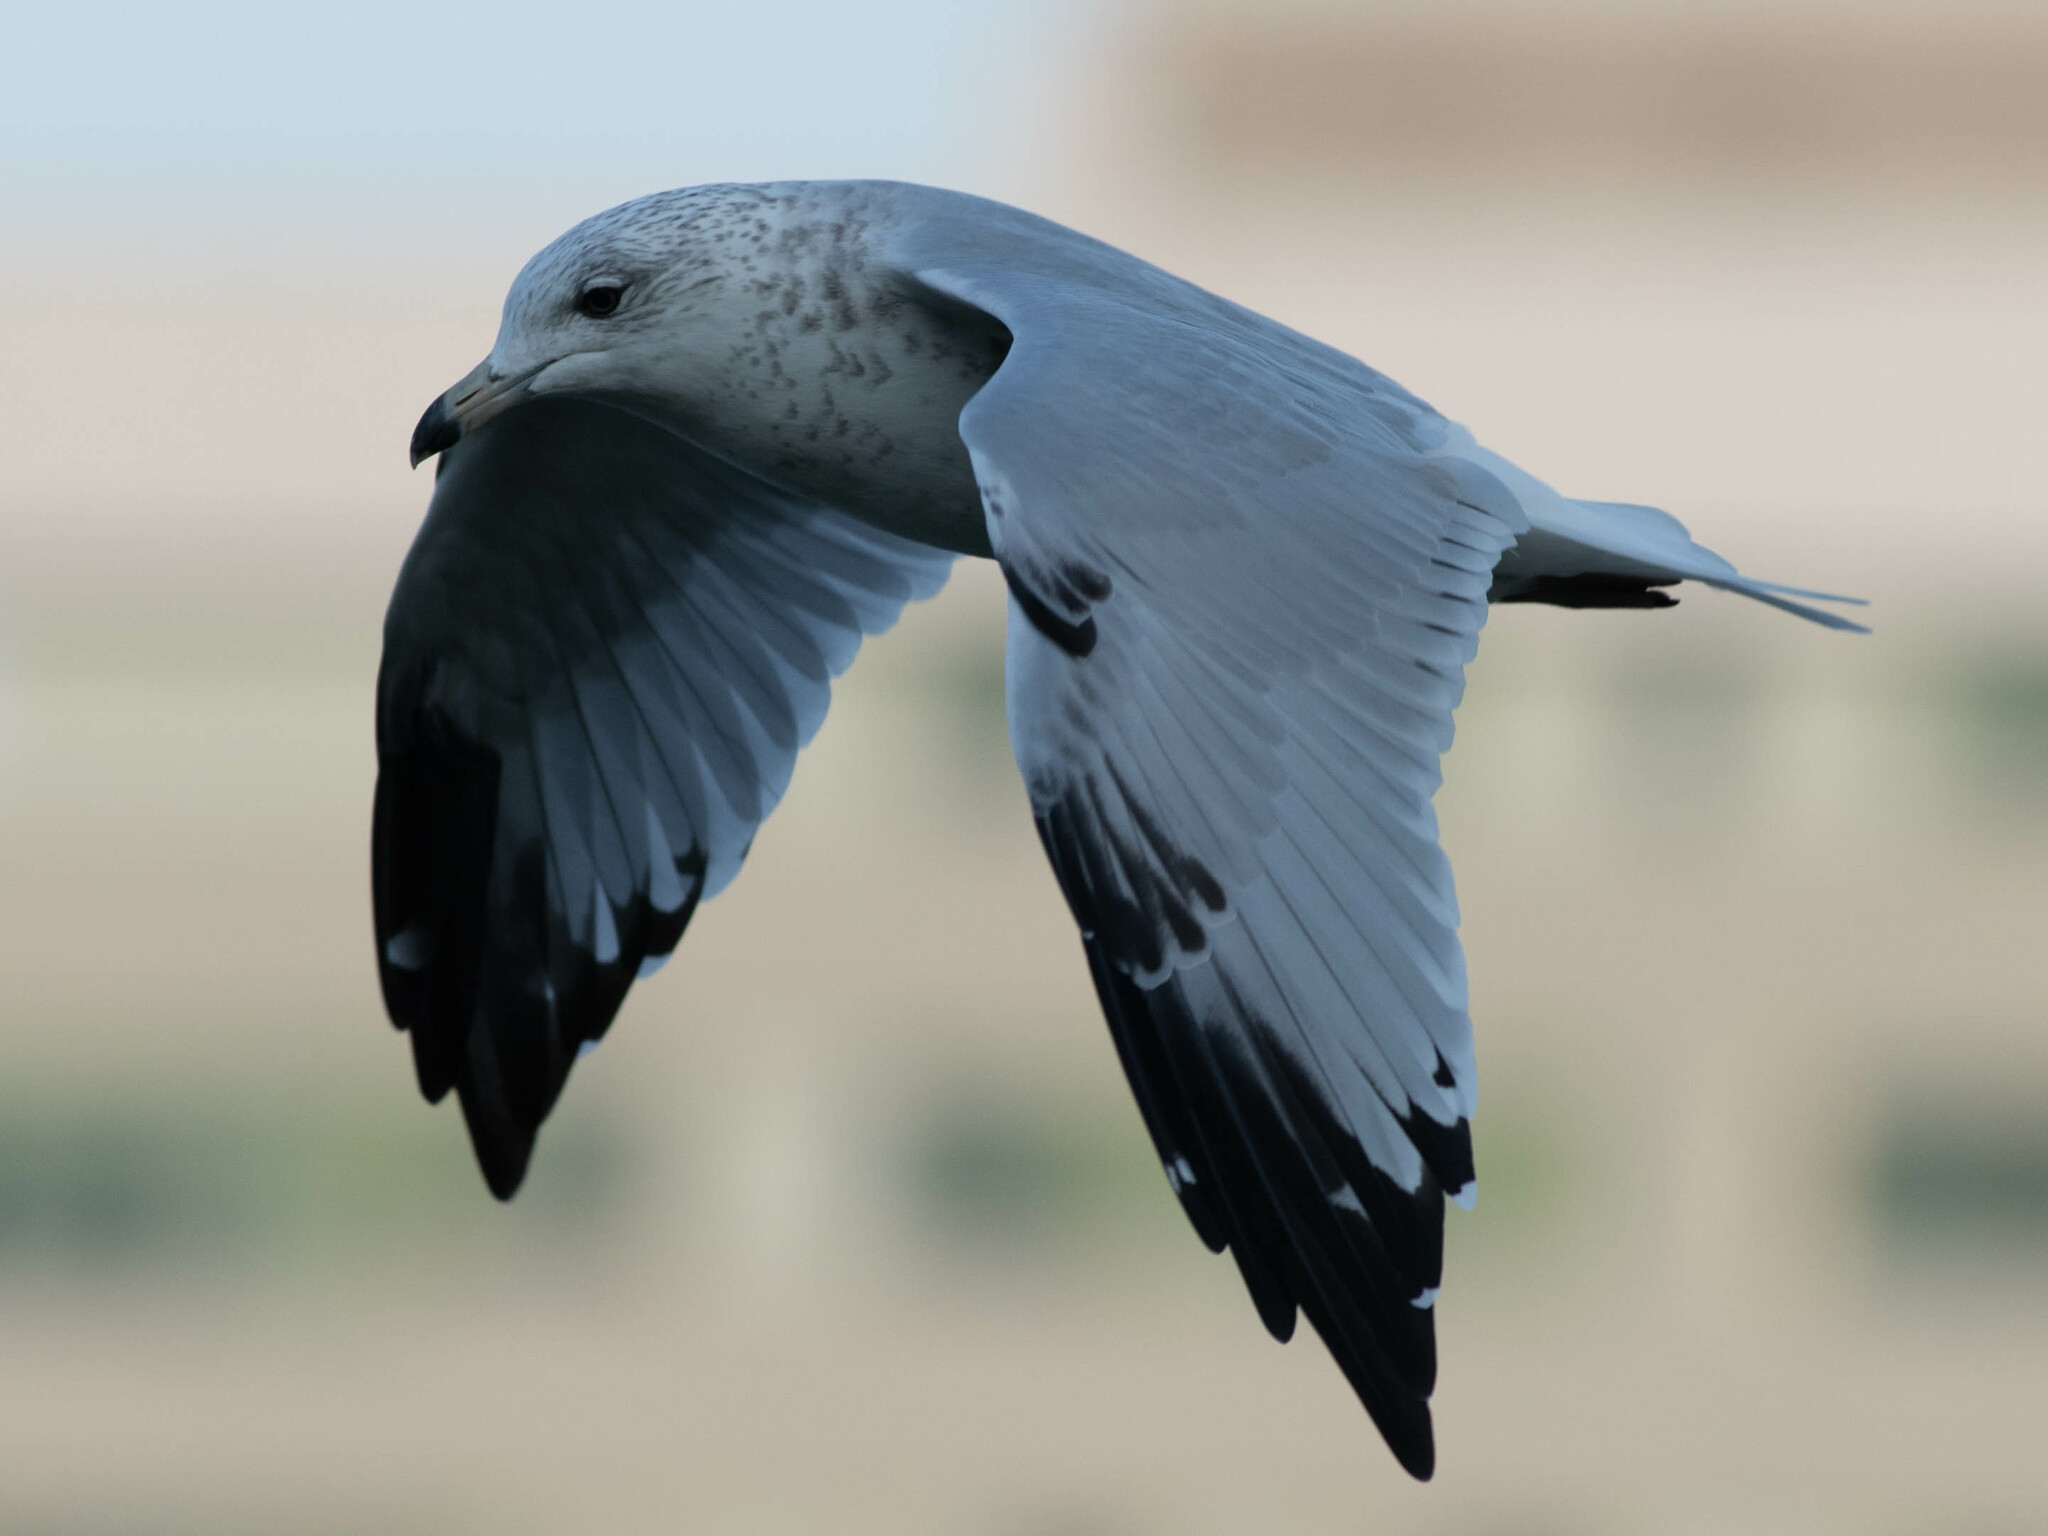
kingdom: Animalia
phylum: Chordata
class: Aves
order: Charadriiformes
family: Laridae
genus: Larus
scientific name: Larus delawarensis
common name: Ring-billed gull
